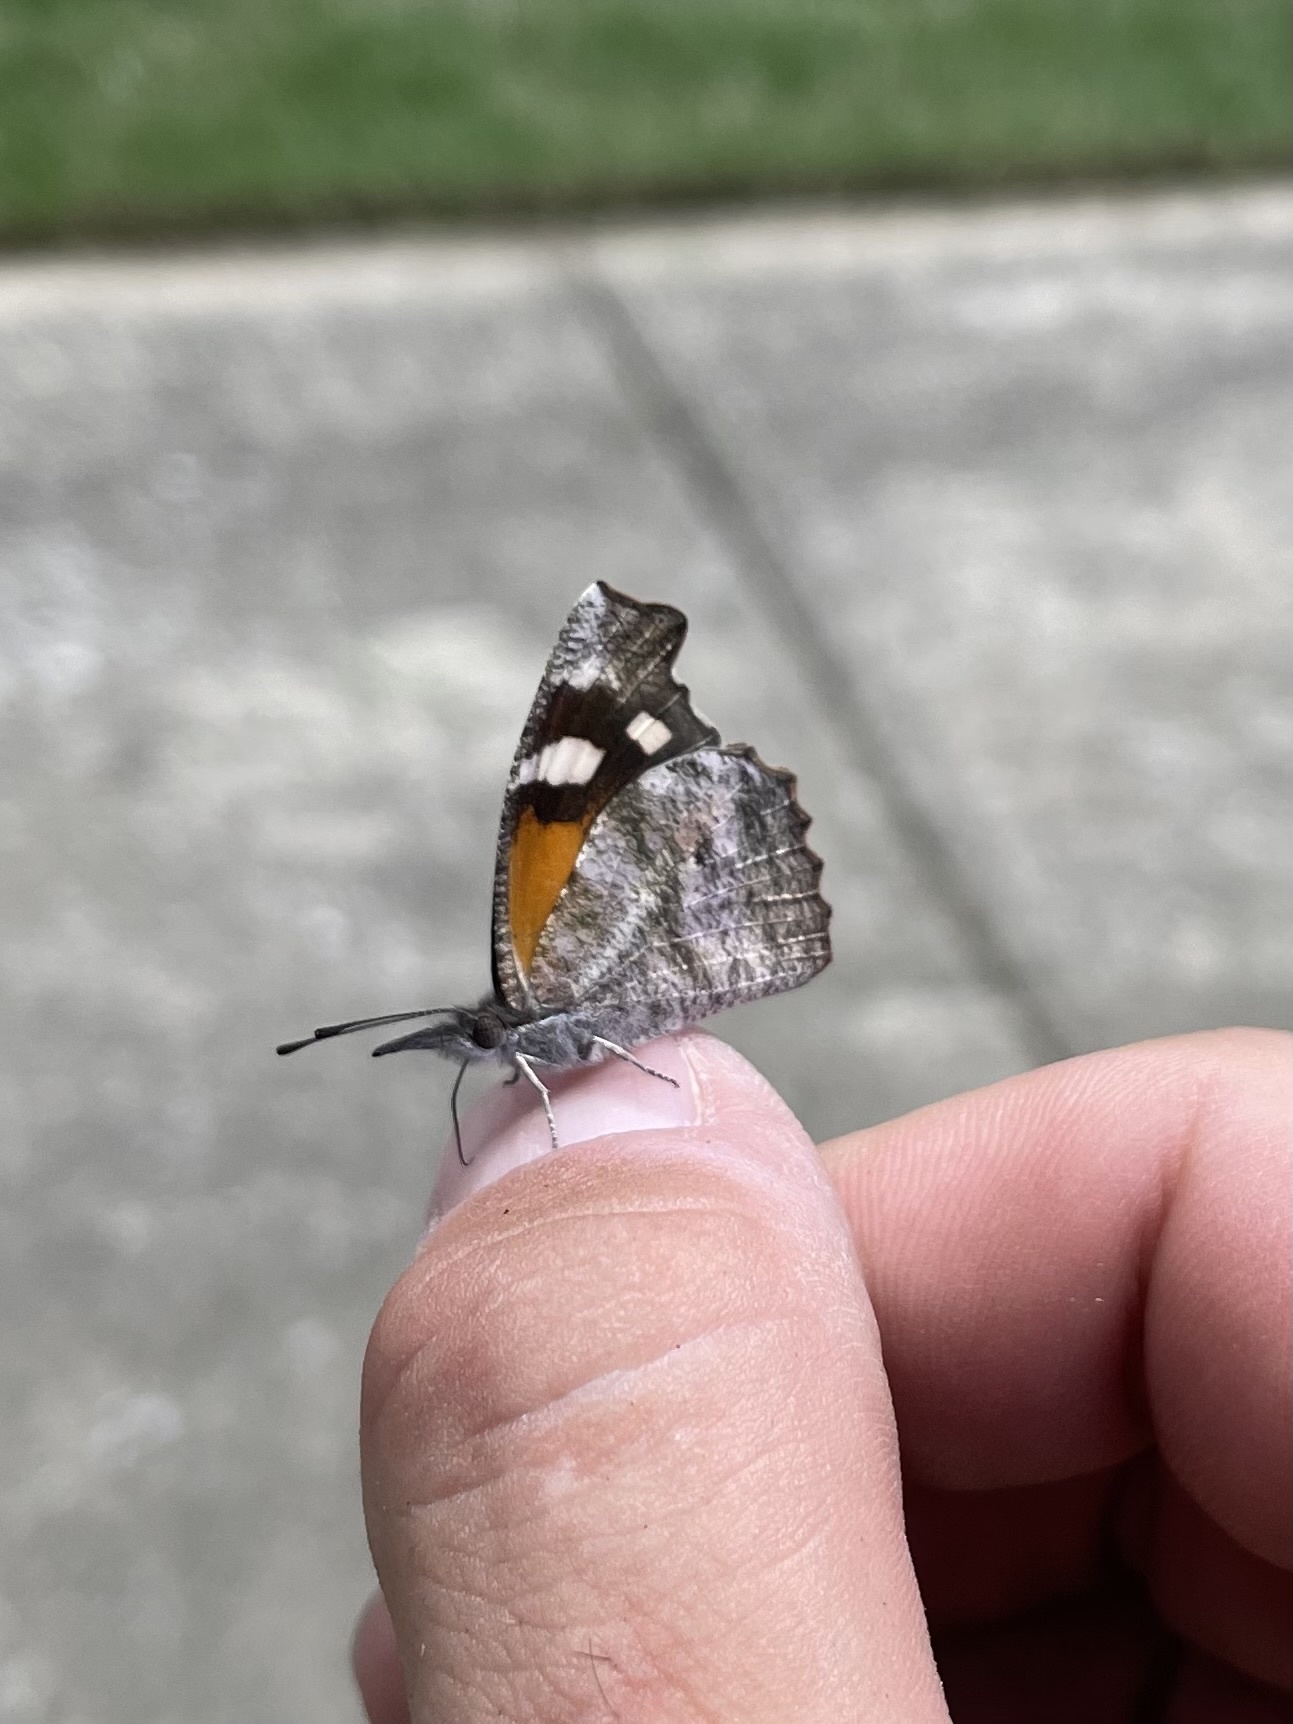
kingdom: Animalia
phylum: Arthropoda
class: Insecta
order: Lepidoptera
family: Nymphalidae
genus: Libytheana
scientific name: Libytheana carinenta
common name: American snout
